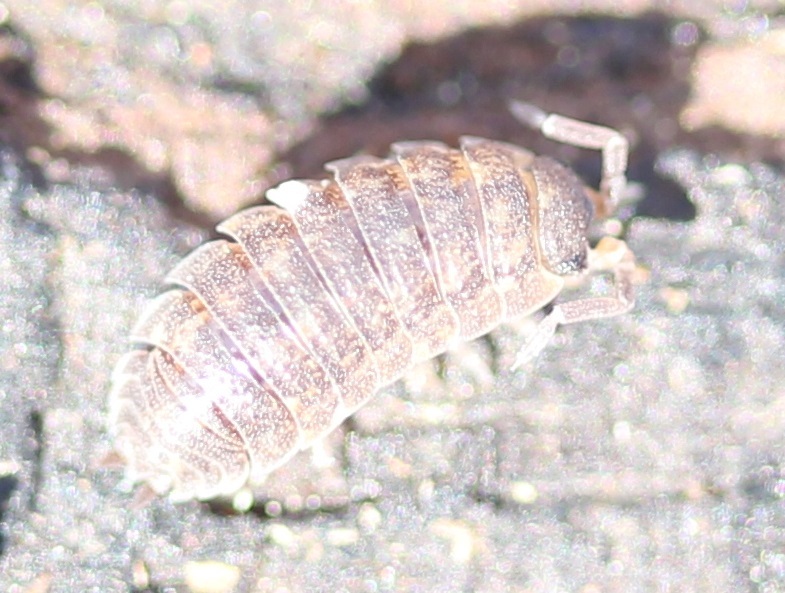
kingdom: Animalia
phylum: Arthropoda
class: Malacostraca
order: Isopoda
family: Porcellionidae
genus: Porcellio
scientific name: Porcellio scaber
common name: Common rough woodlouse
